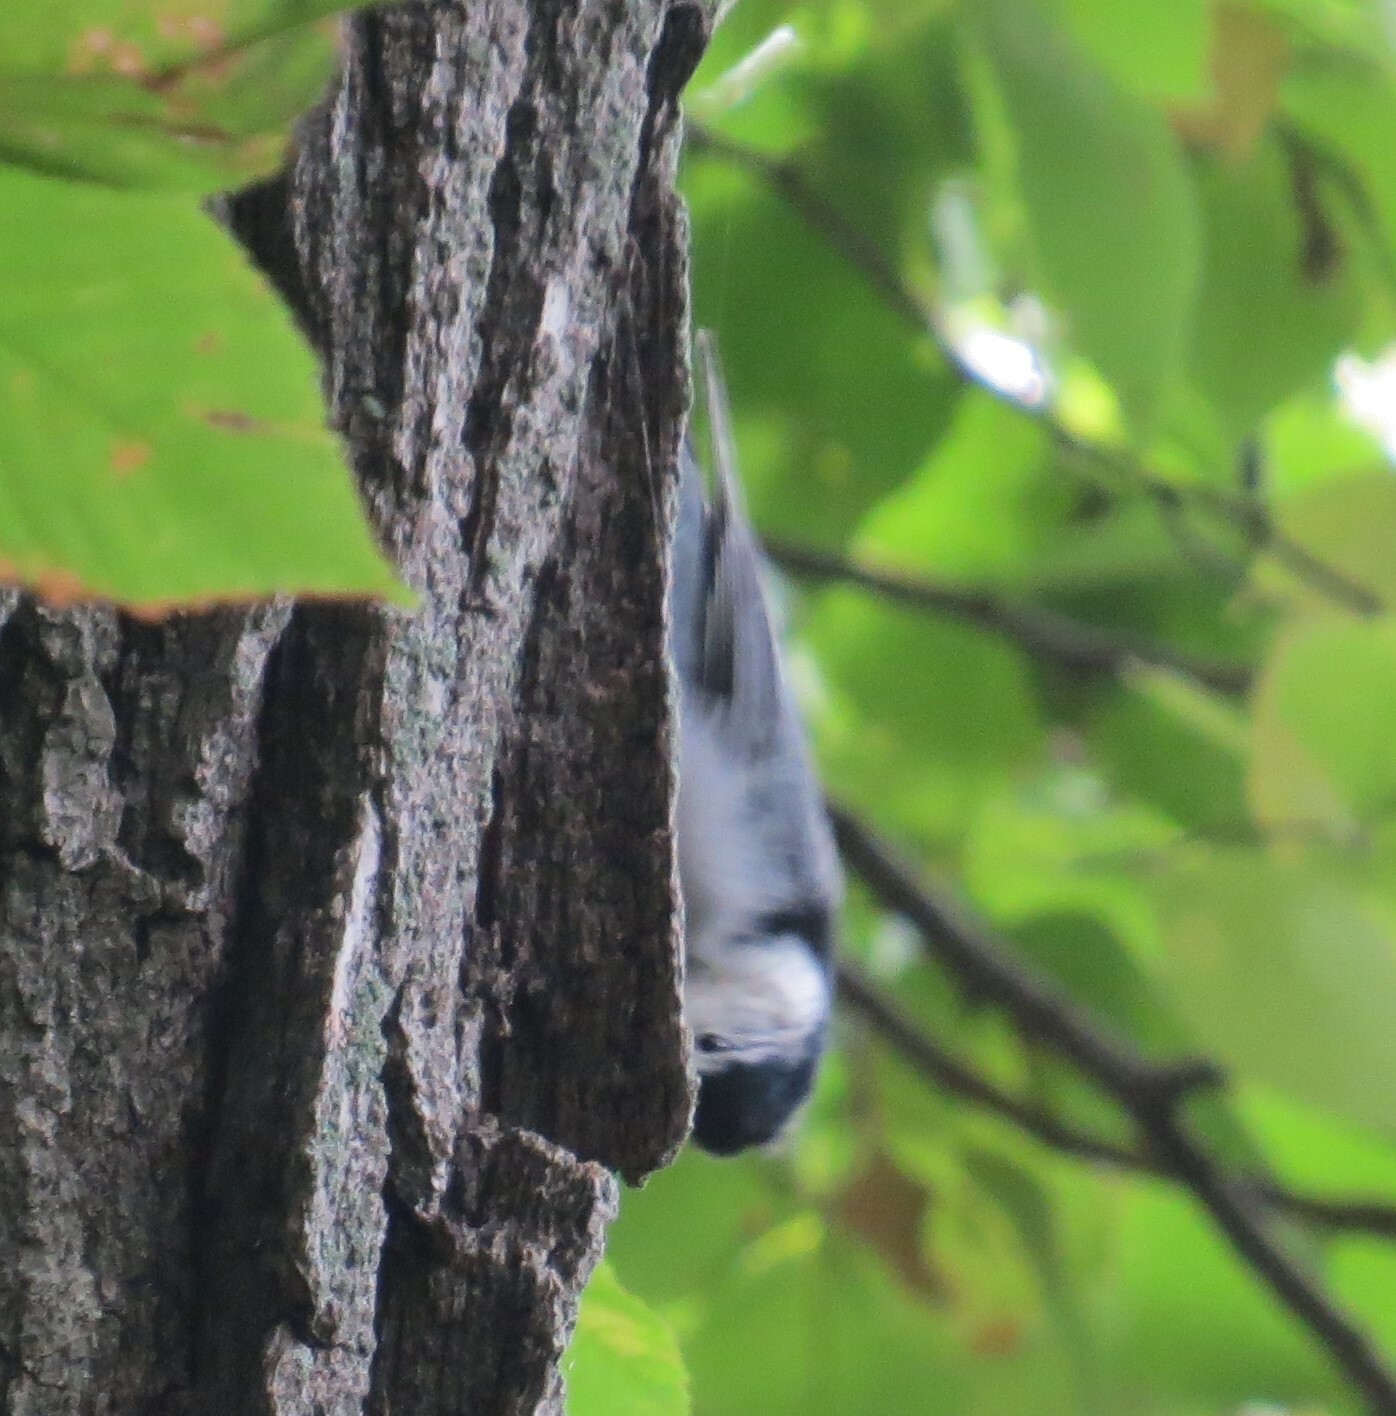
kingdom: Animalia
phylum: Chordata
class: Aves
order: Passeriformes
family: Sittidae
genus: Sitta
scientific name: Sitta carolinensis
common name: White-breasted nuthatch
